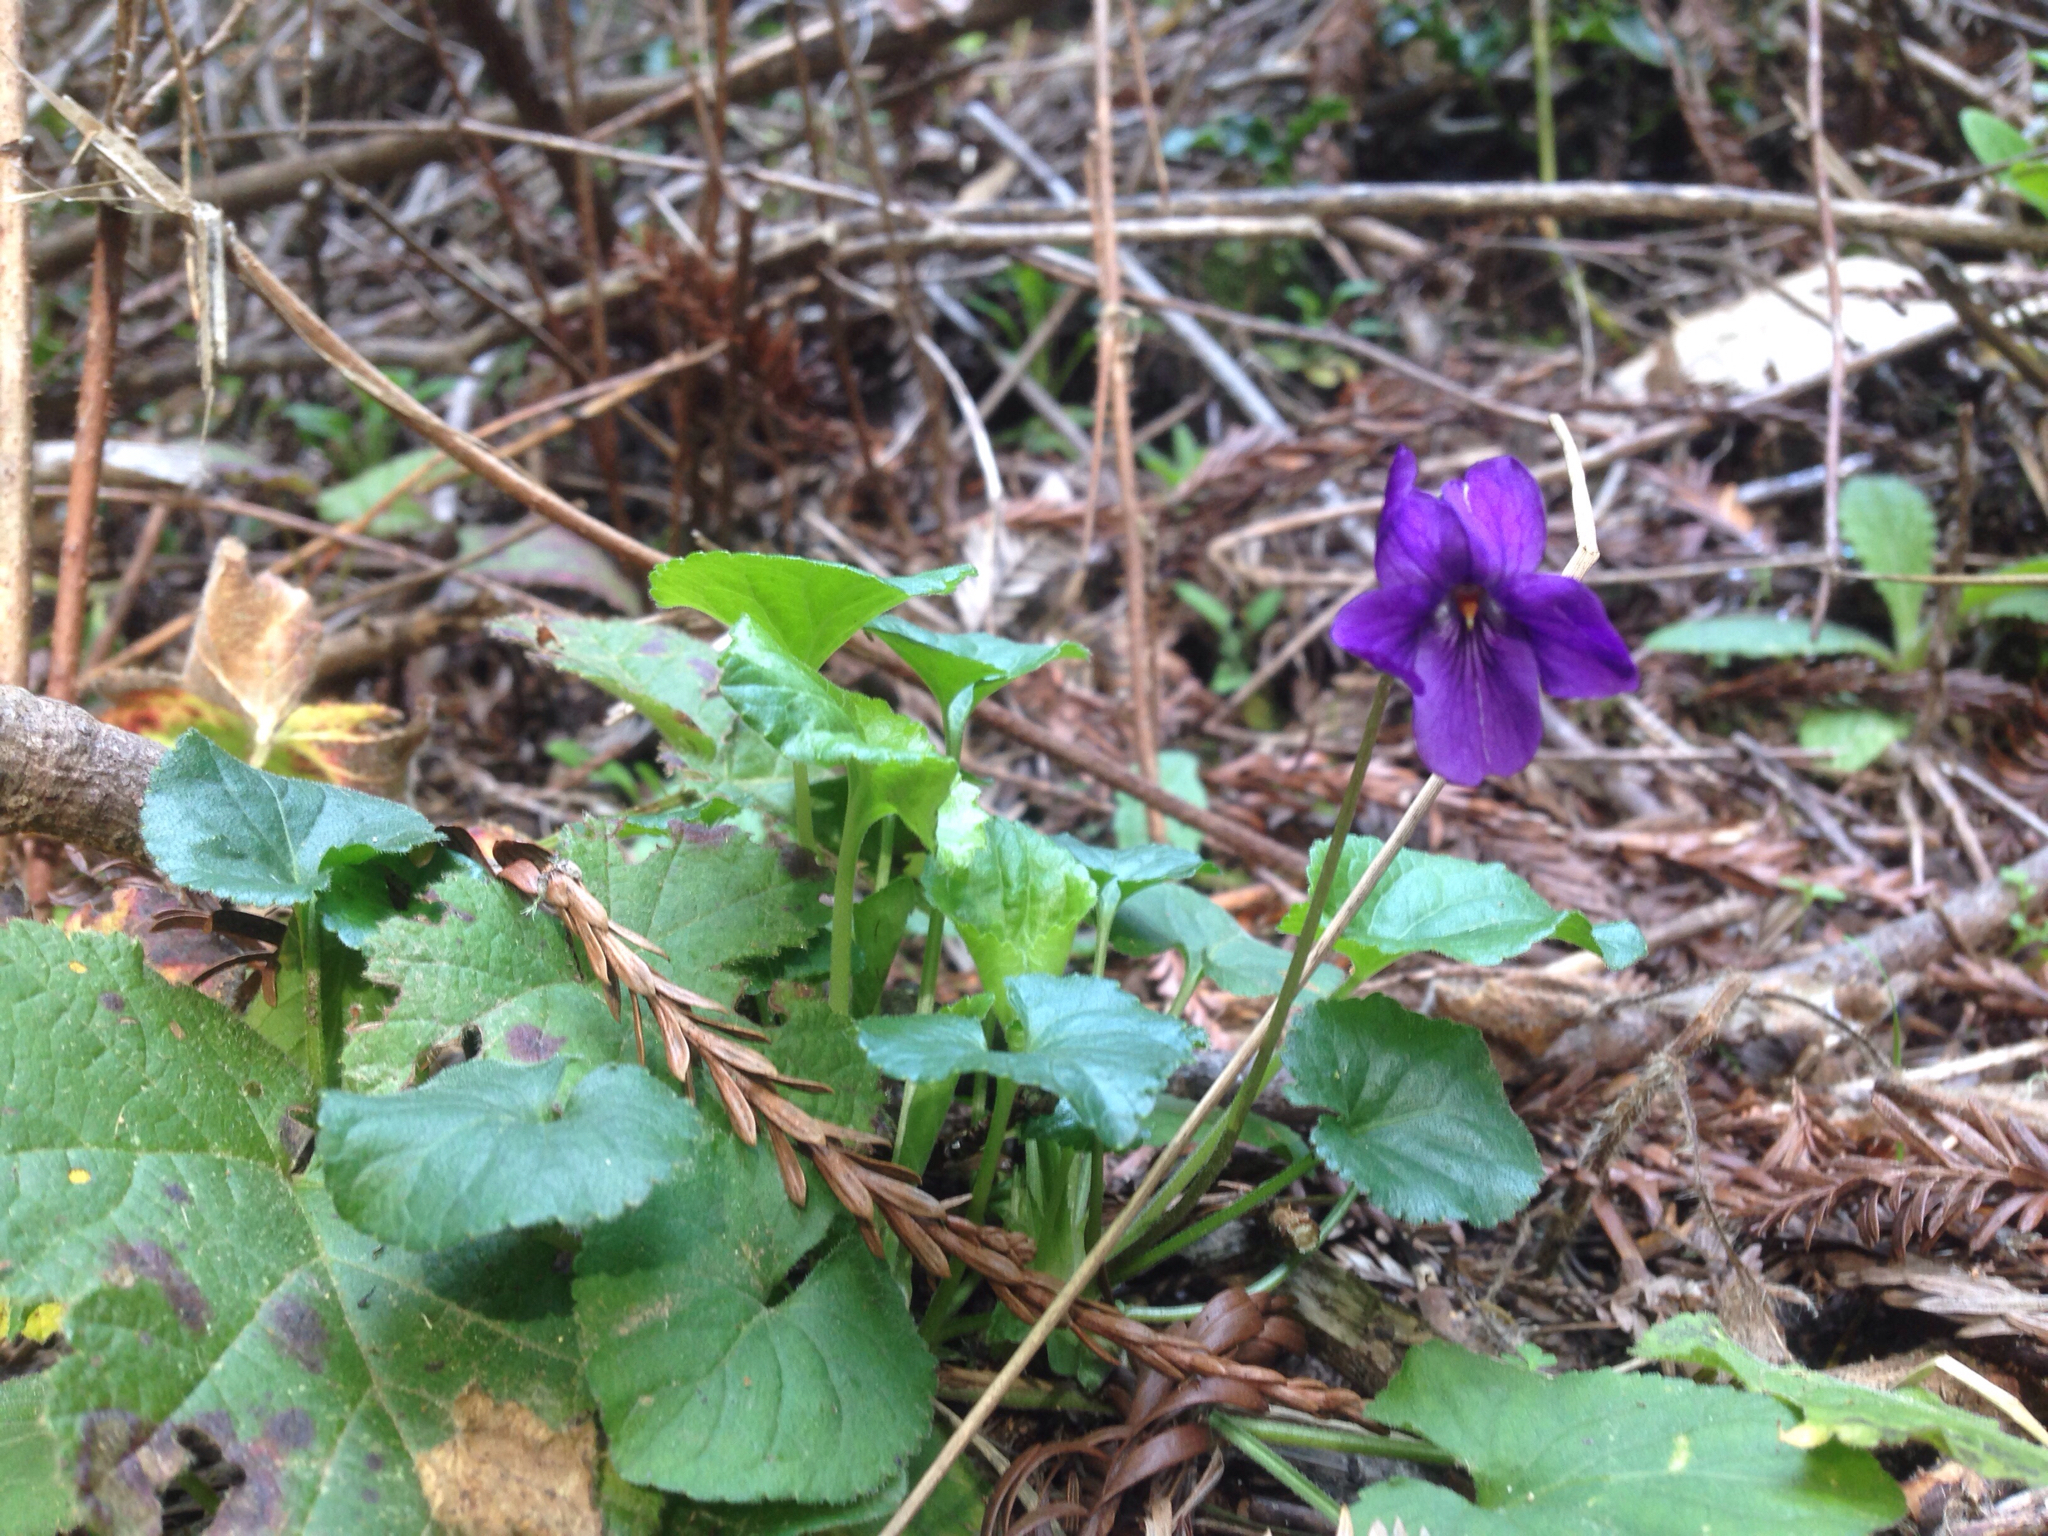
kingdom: Plantae
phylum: Tracheophyta
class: Magnoliopsida
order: Malpighiales
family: Violaceae
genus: Viola
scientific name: Viola odorata
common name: Sweet violet
